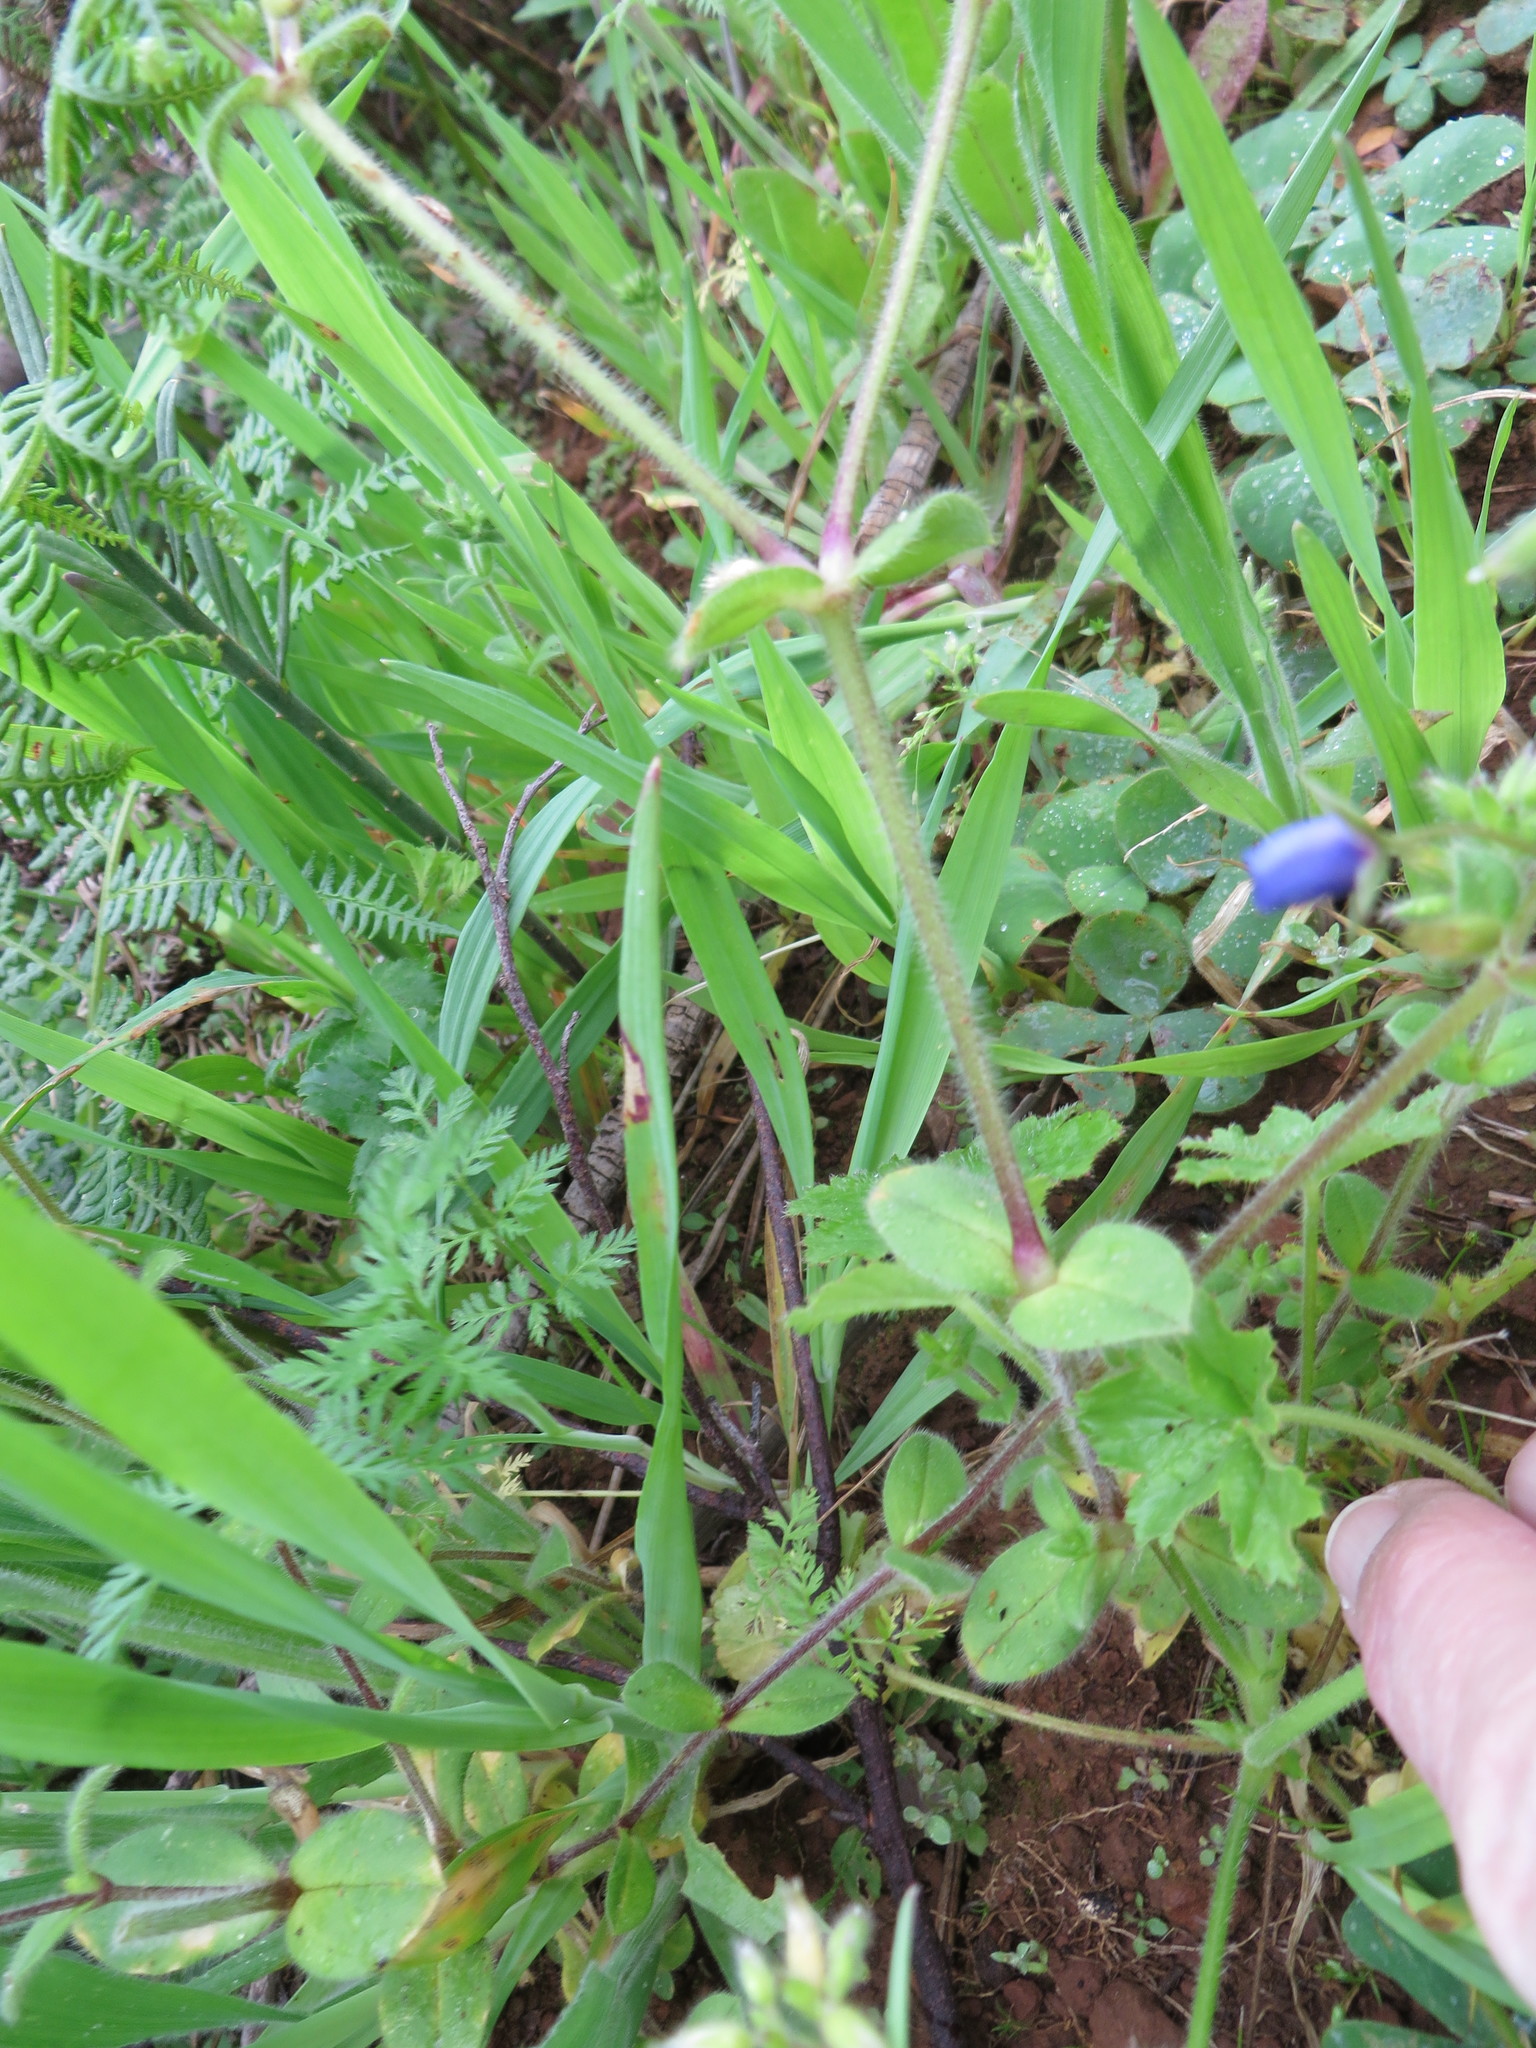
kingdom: Plantae
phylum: Tracheophyta
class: Magnoliopsida
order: Caryophyllales
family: Caryophyllaceae
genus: Cerastium
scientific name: Cerastium glomeratum
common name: Sticky chickweed
